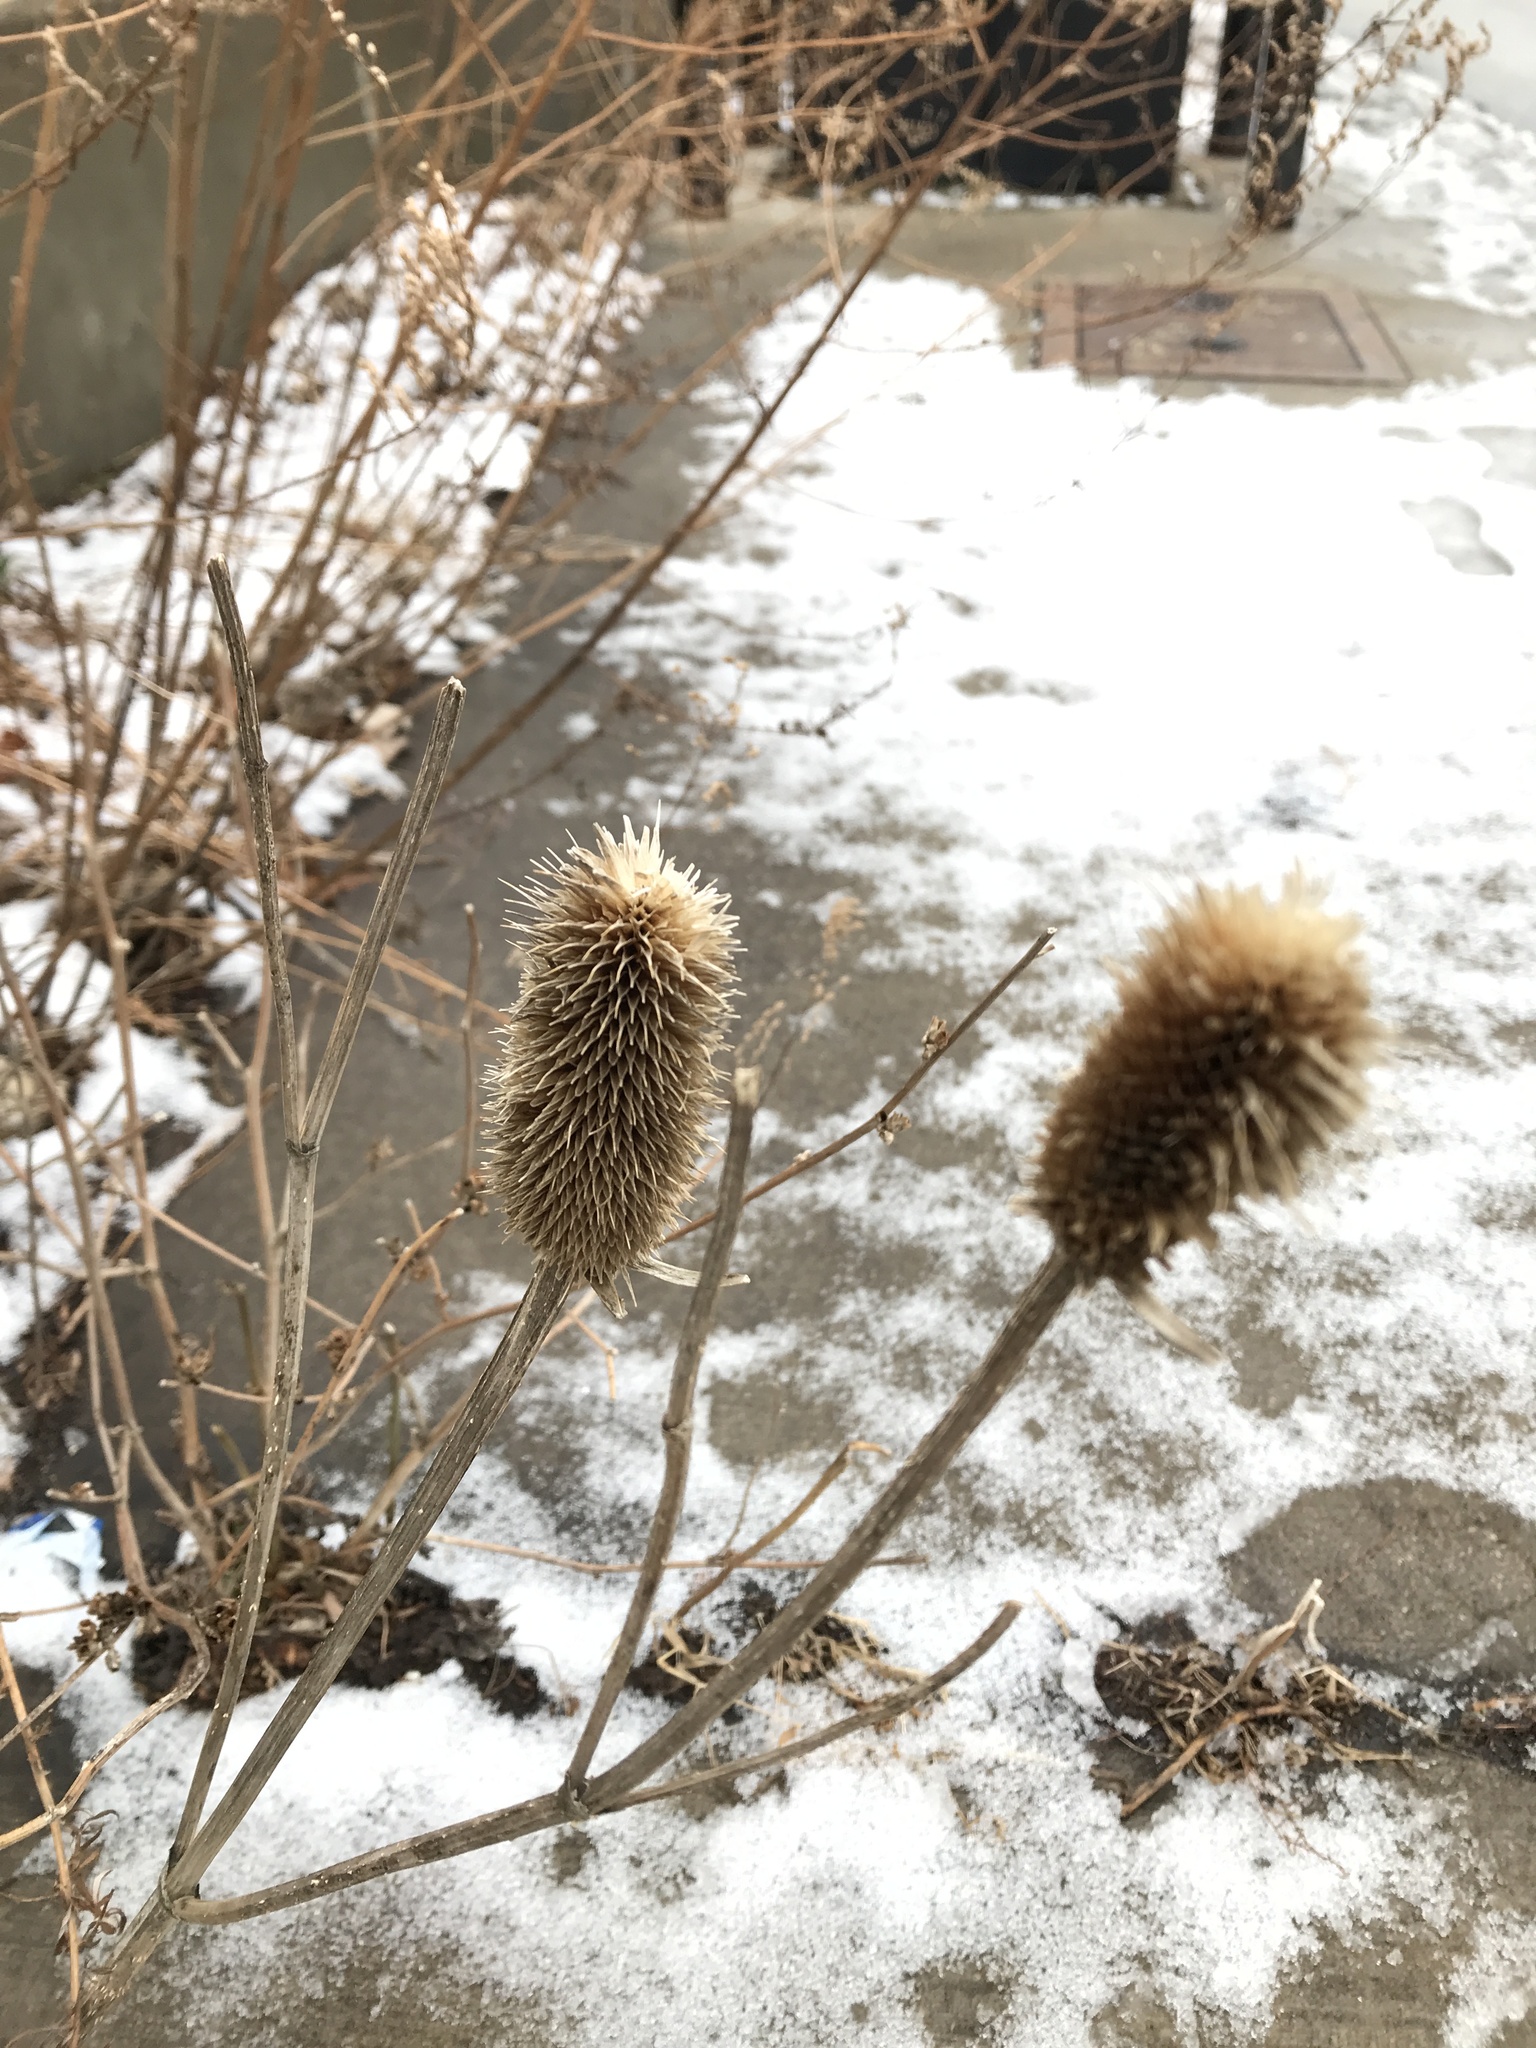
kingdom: Plantae
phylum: Tracheophyta
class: Magnoliopsida
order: Dipsacales
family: Caprifoliaceae
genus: Dipsacus
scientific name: Dipsacus laciniatus
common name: Cut-leaved teasel
